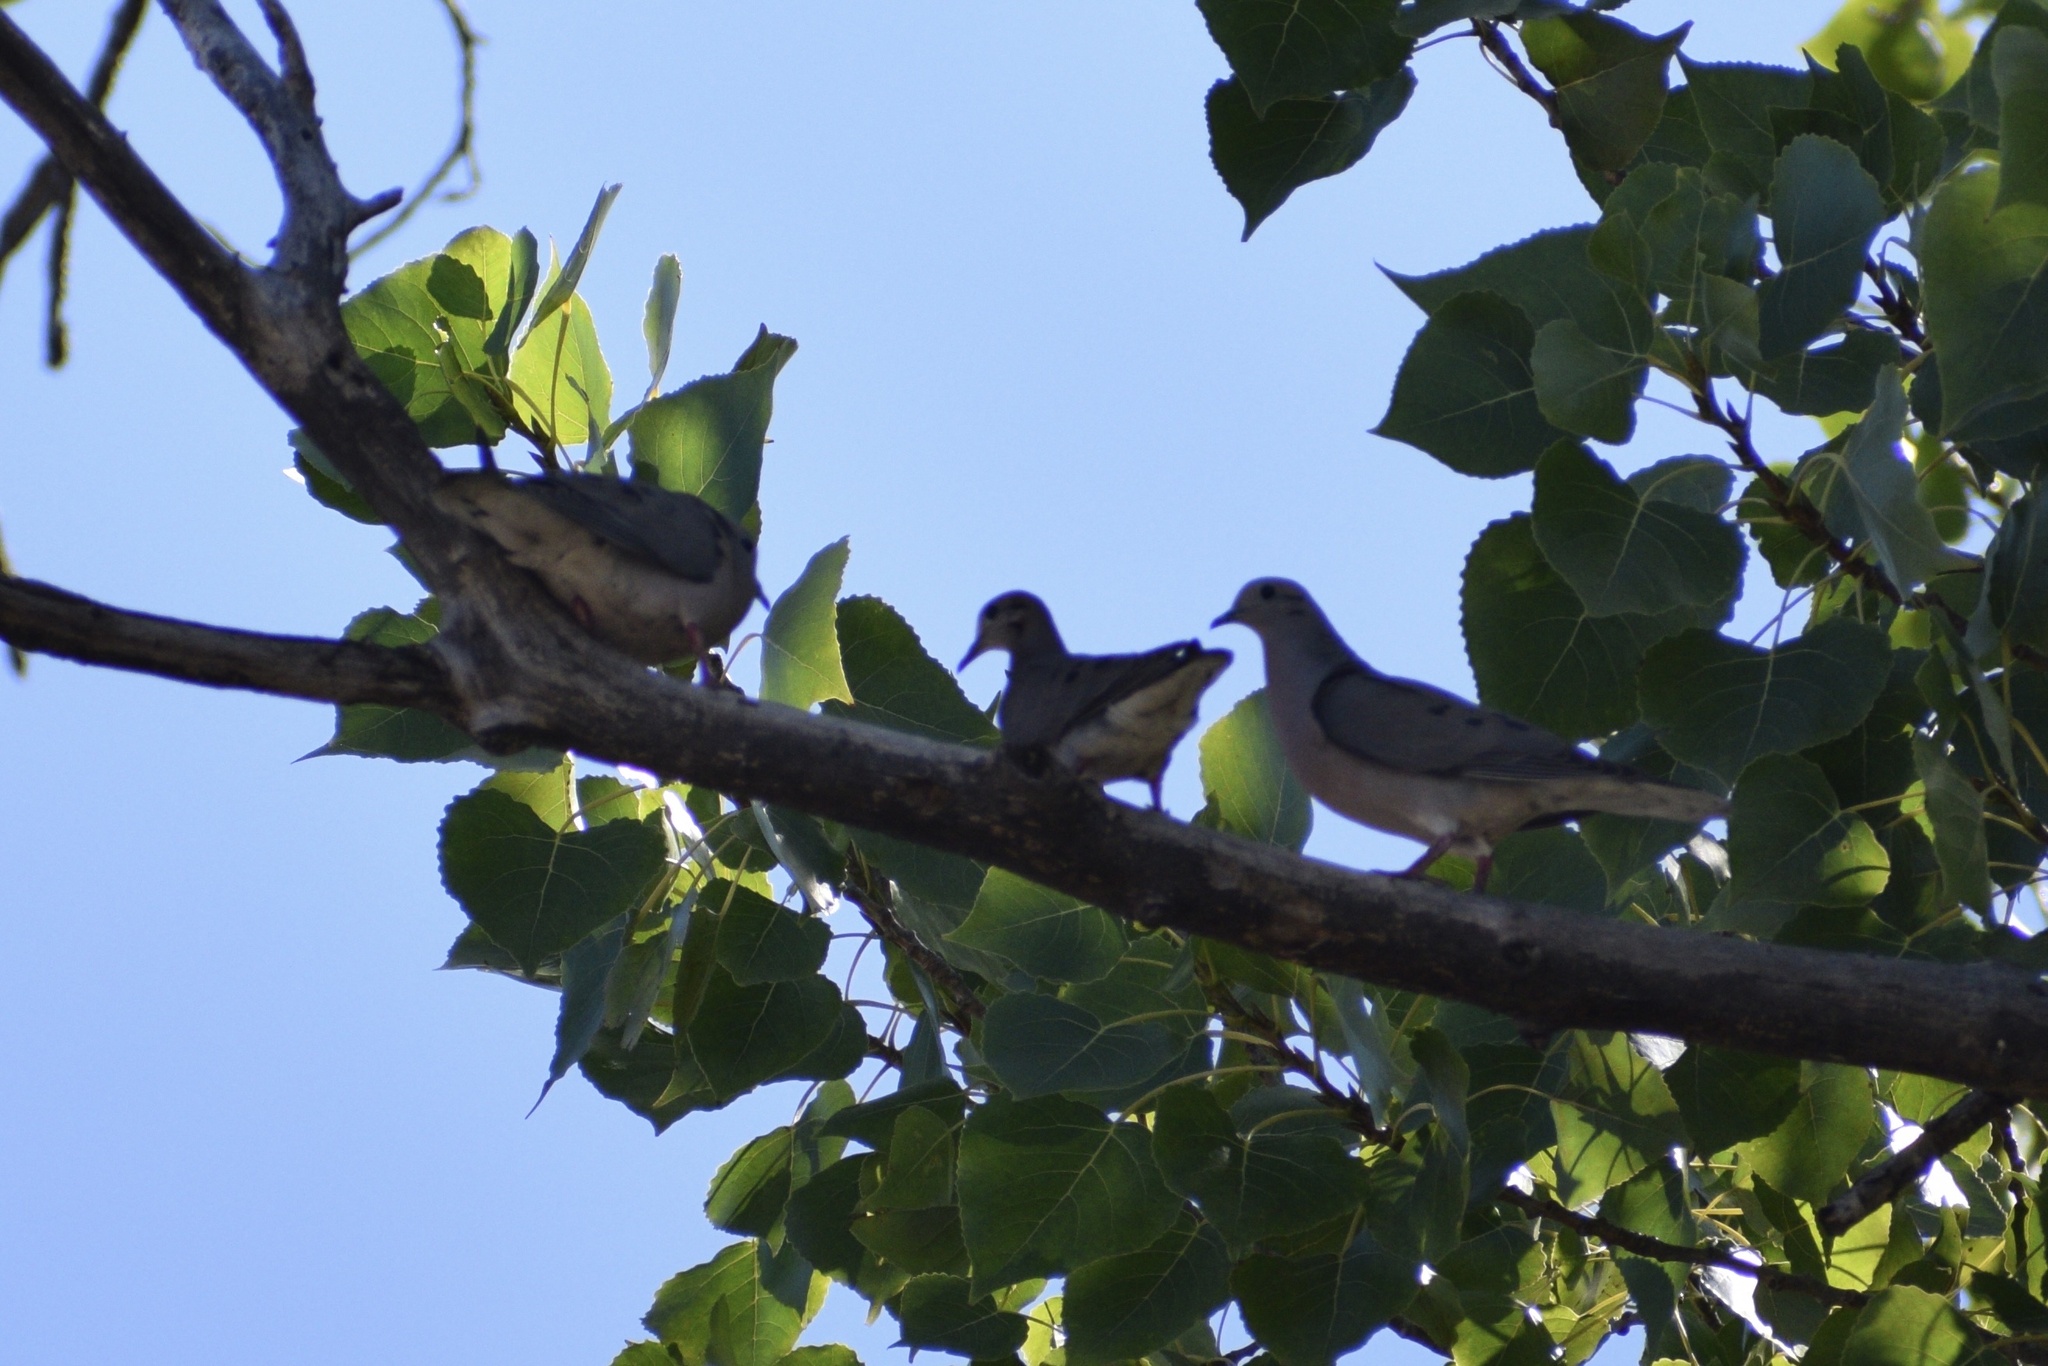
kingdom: Animalia
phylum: Chordata
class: Aves
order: Columbiformes
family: Columbidae
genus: Zenaida
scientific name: Zenaida auriculata
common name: Eared dove
